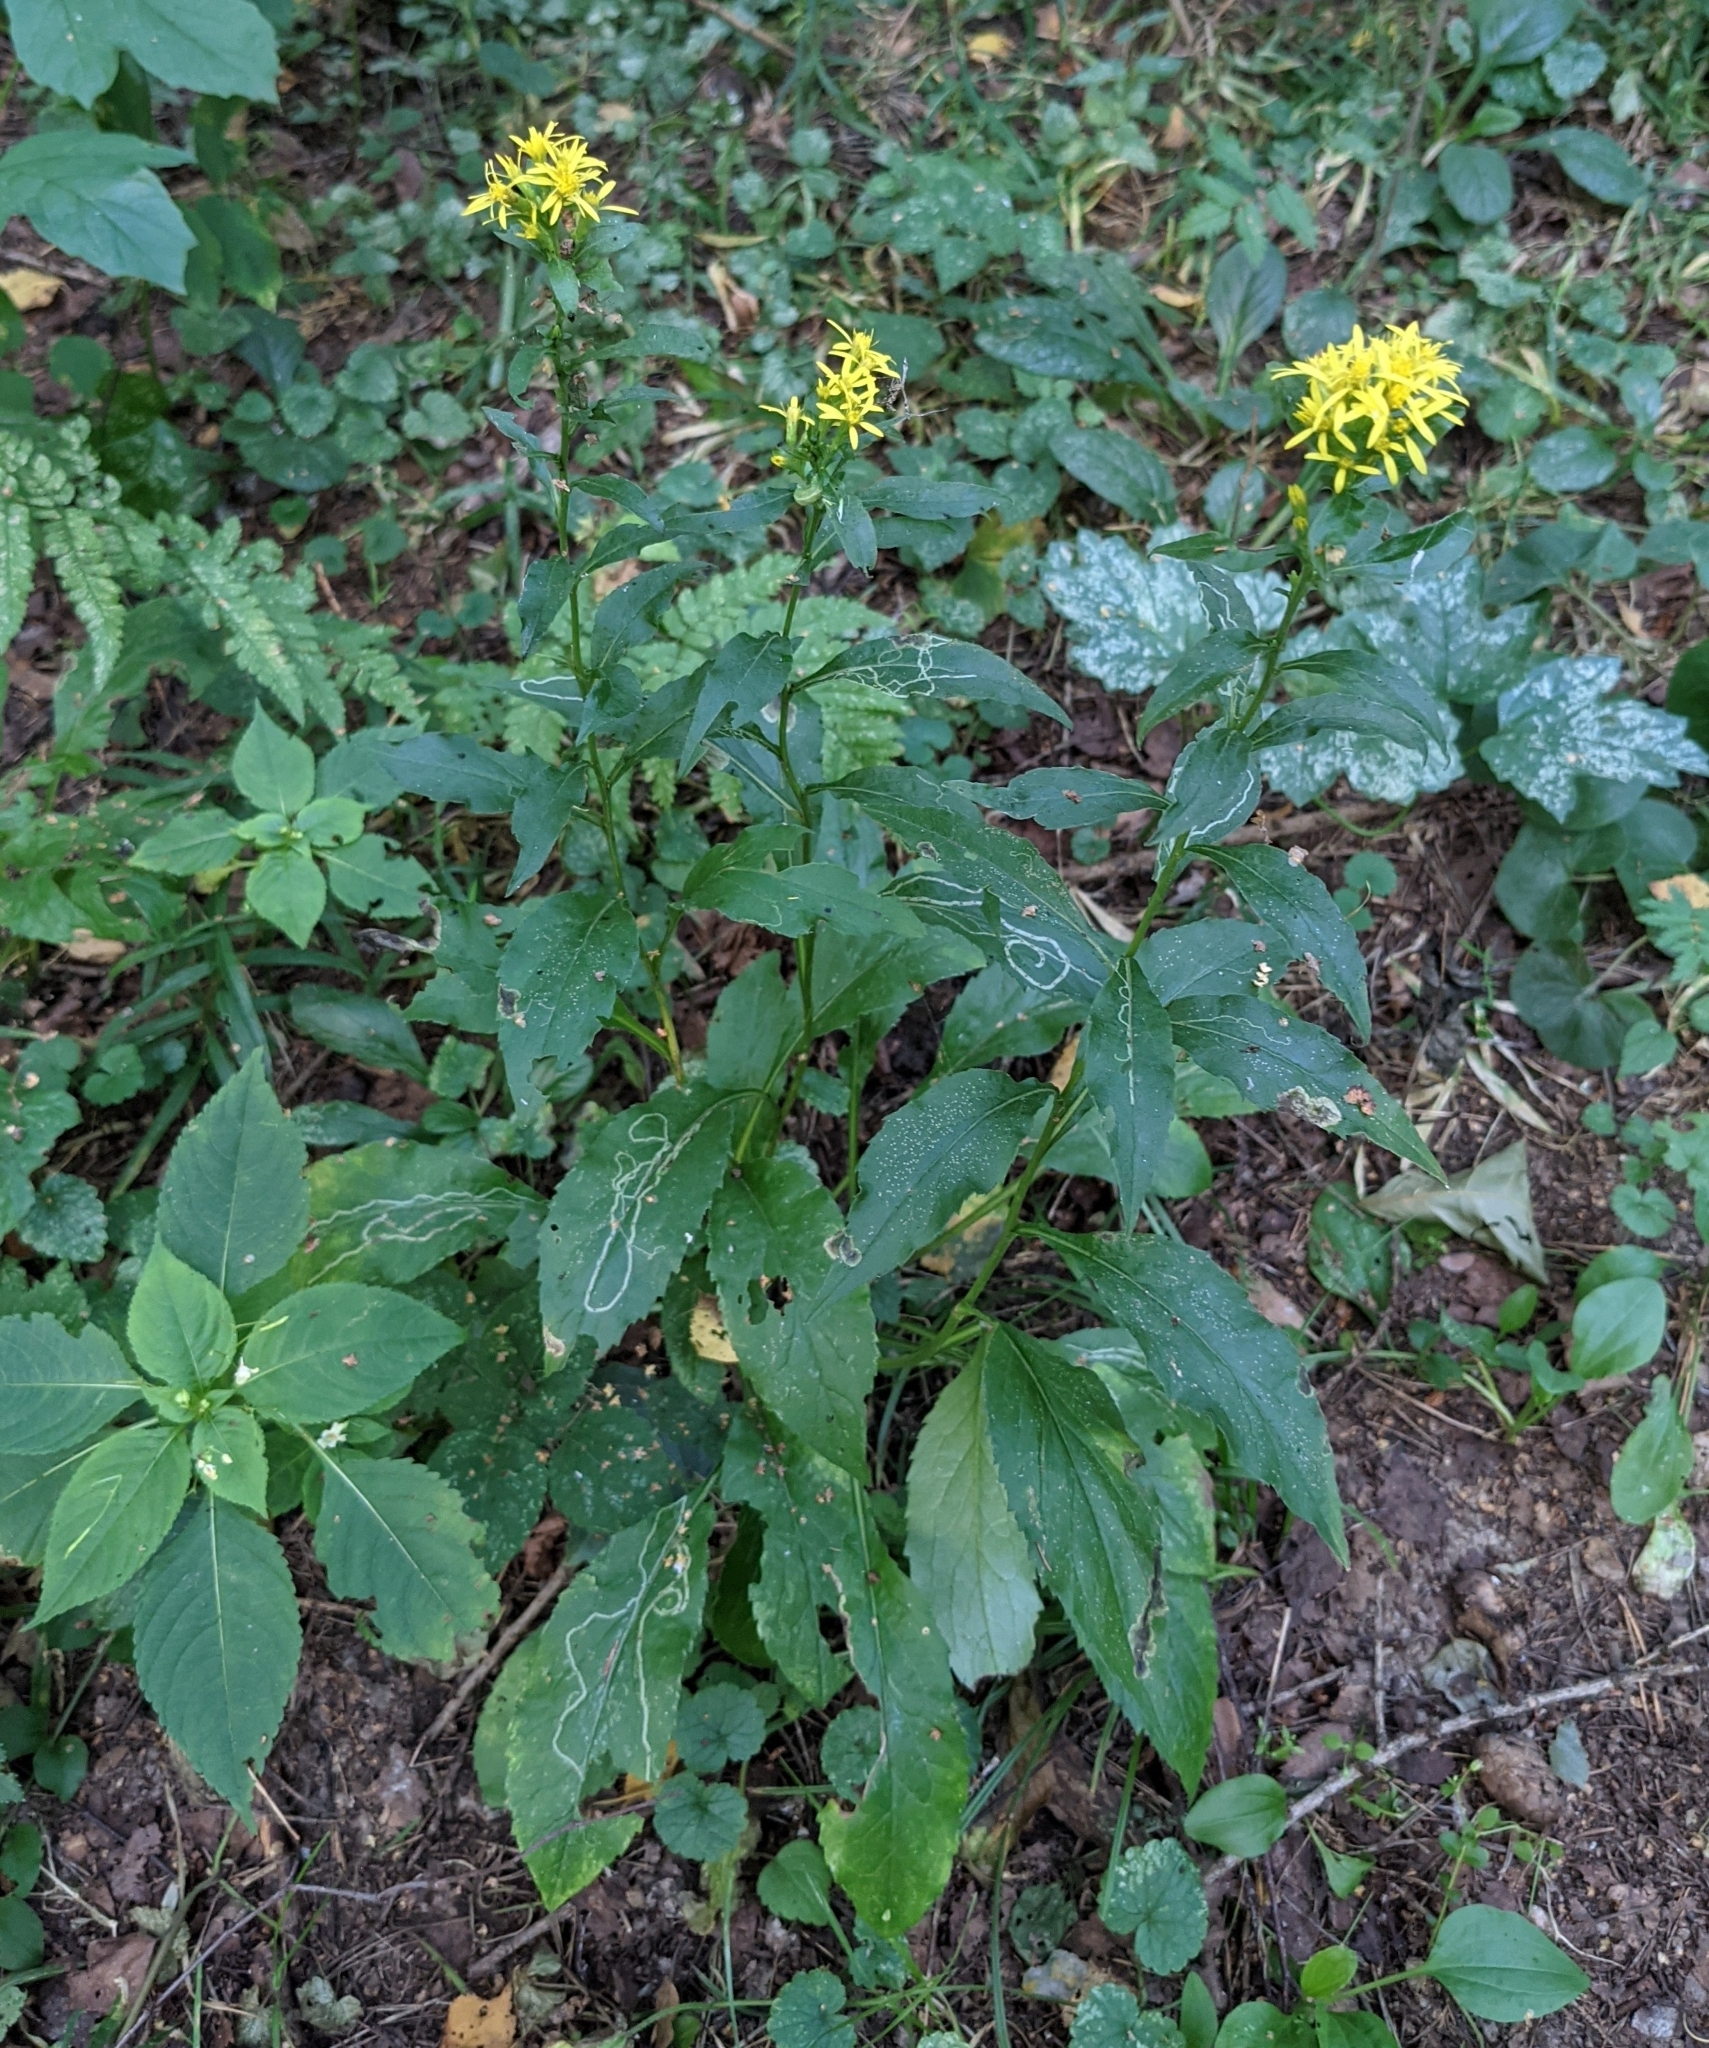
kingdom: Plantae
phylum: Tracheophyta
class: Magnoliopsida
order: Asterales
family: Asteraceae
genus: Solidago
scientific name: Solidago virgaurea
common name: Goldenrod
